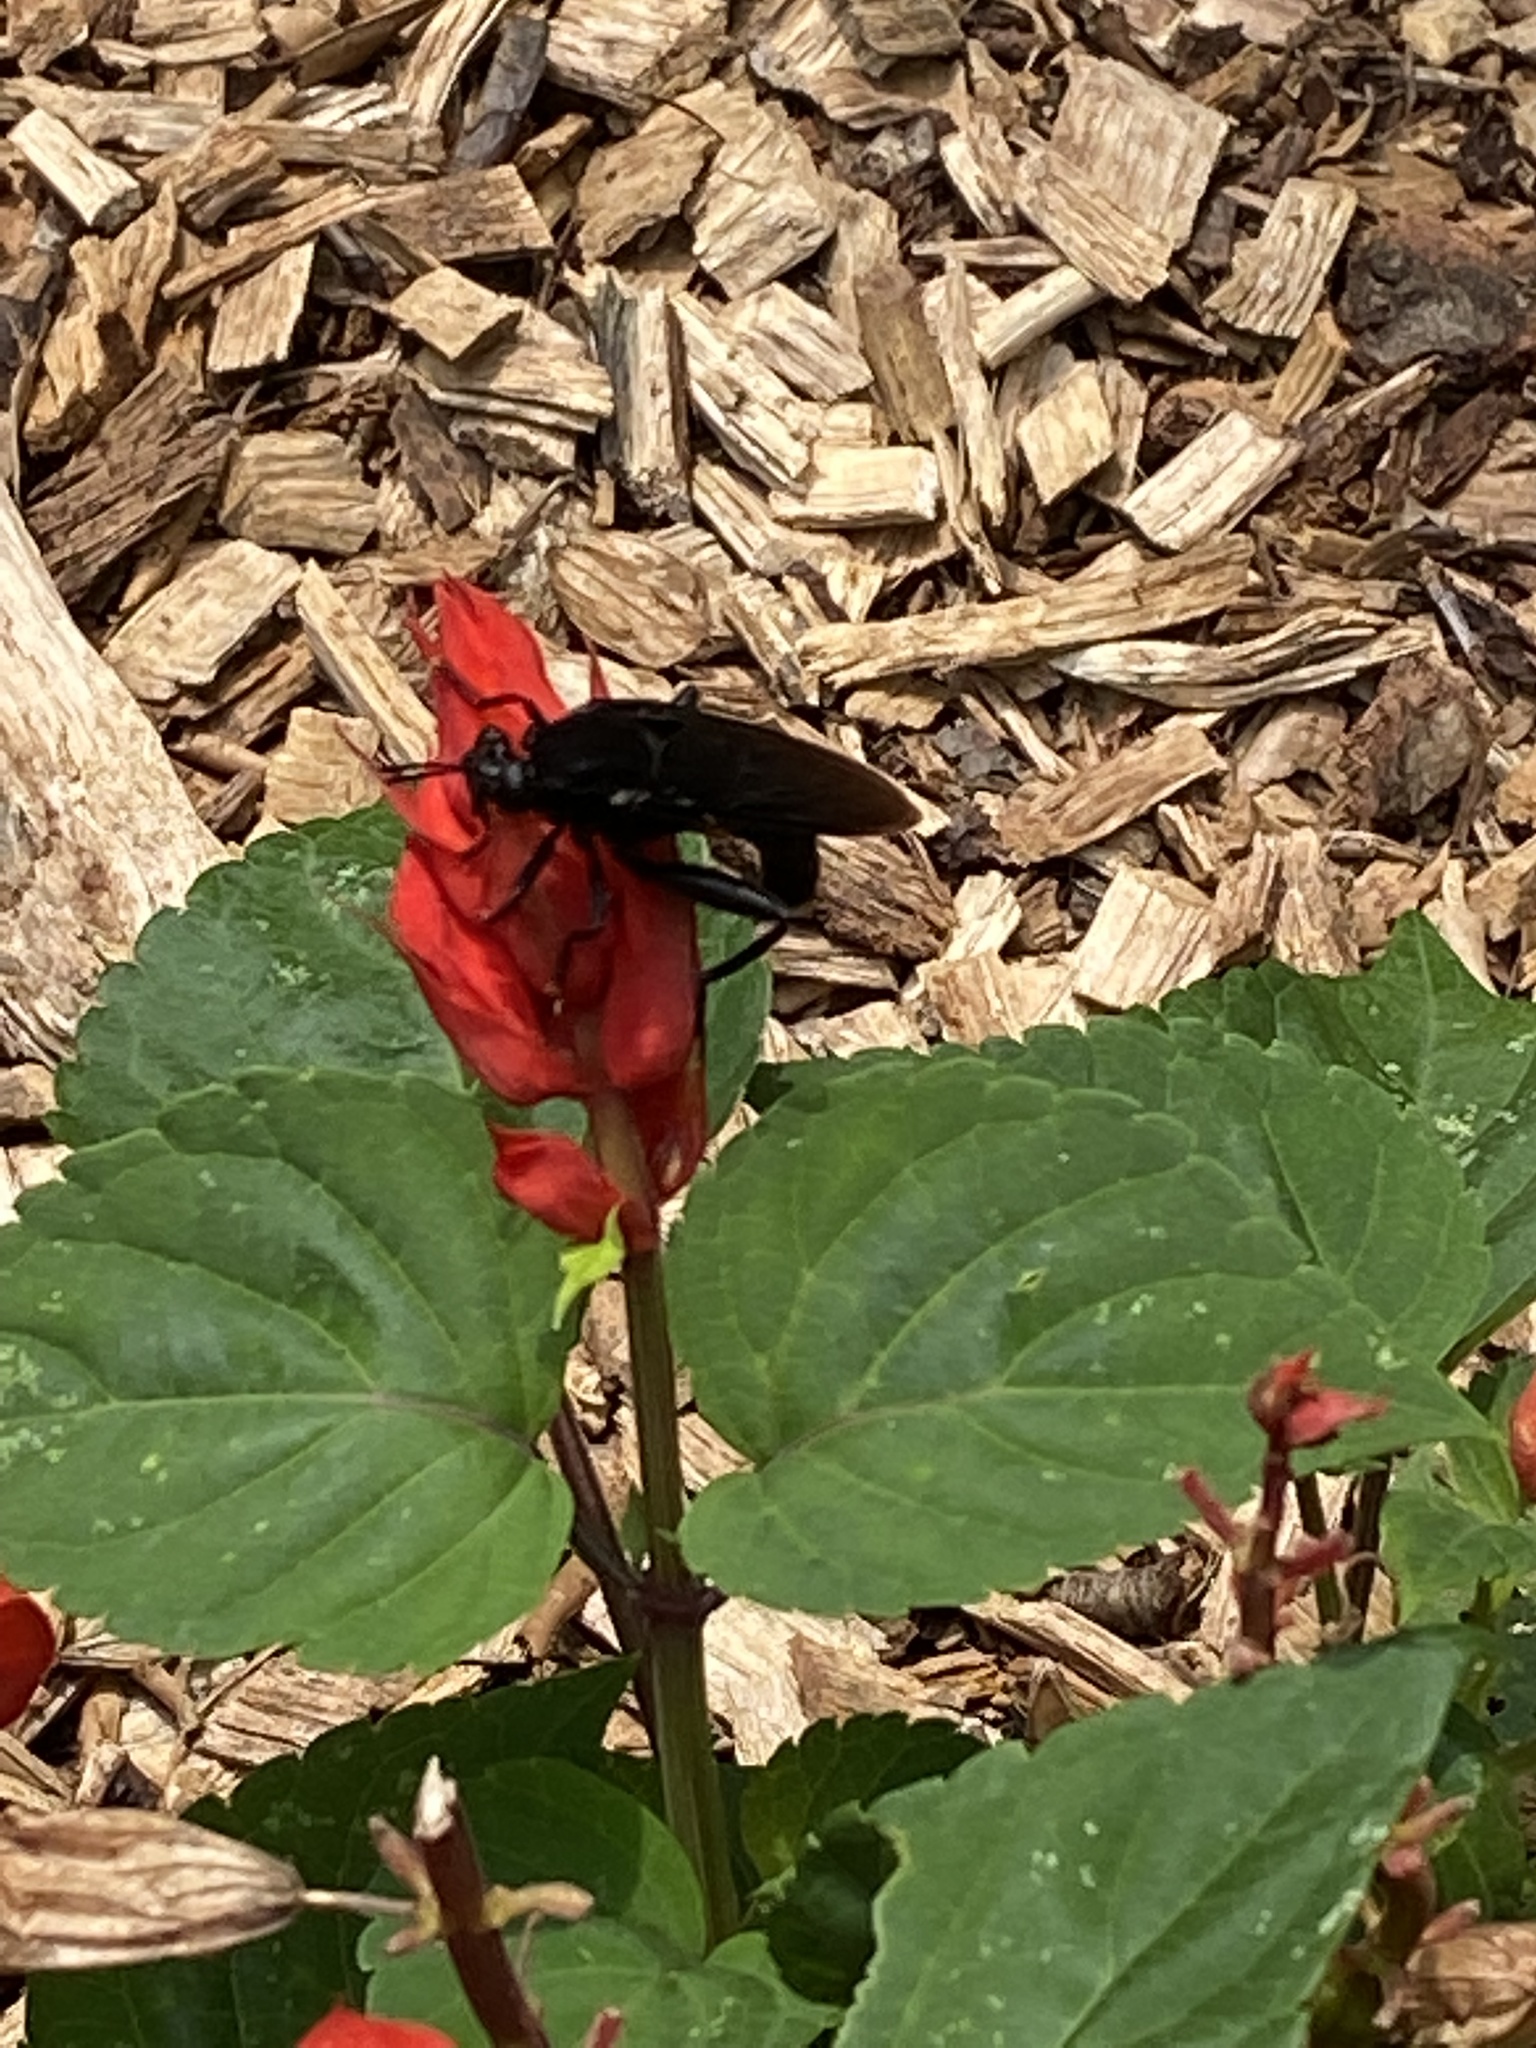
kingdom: Animalia
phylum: Arthropoda
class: Insecta
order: Diptera
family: Mydidae
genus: Mydas
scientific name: Mydas clavatus
